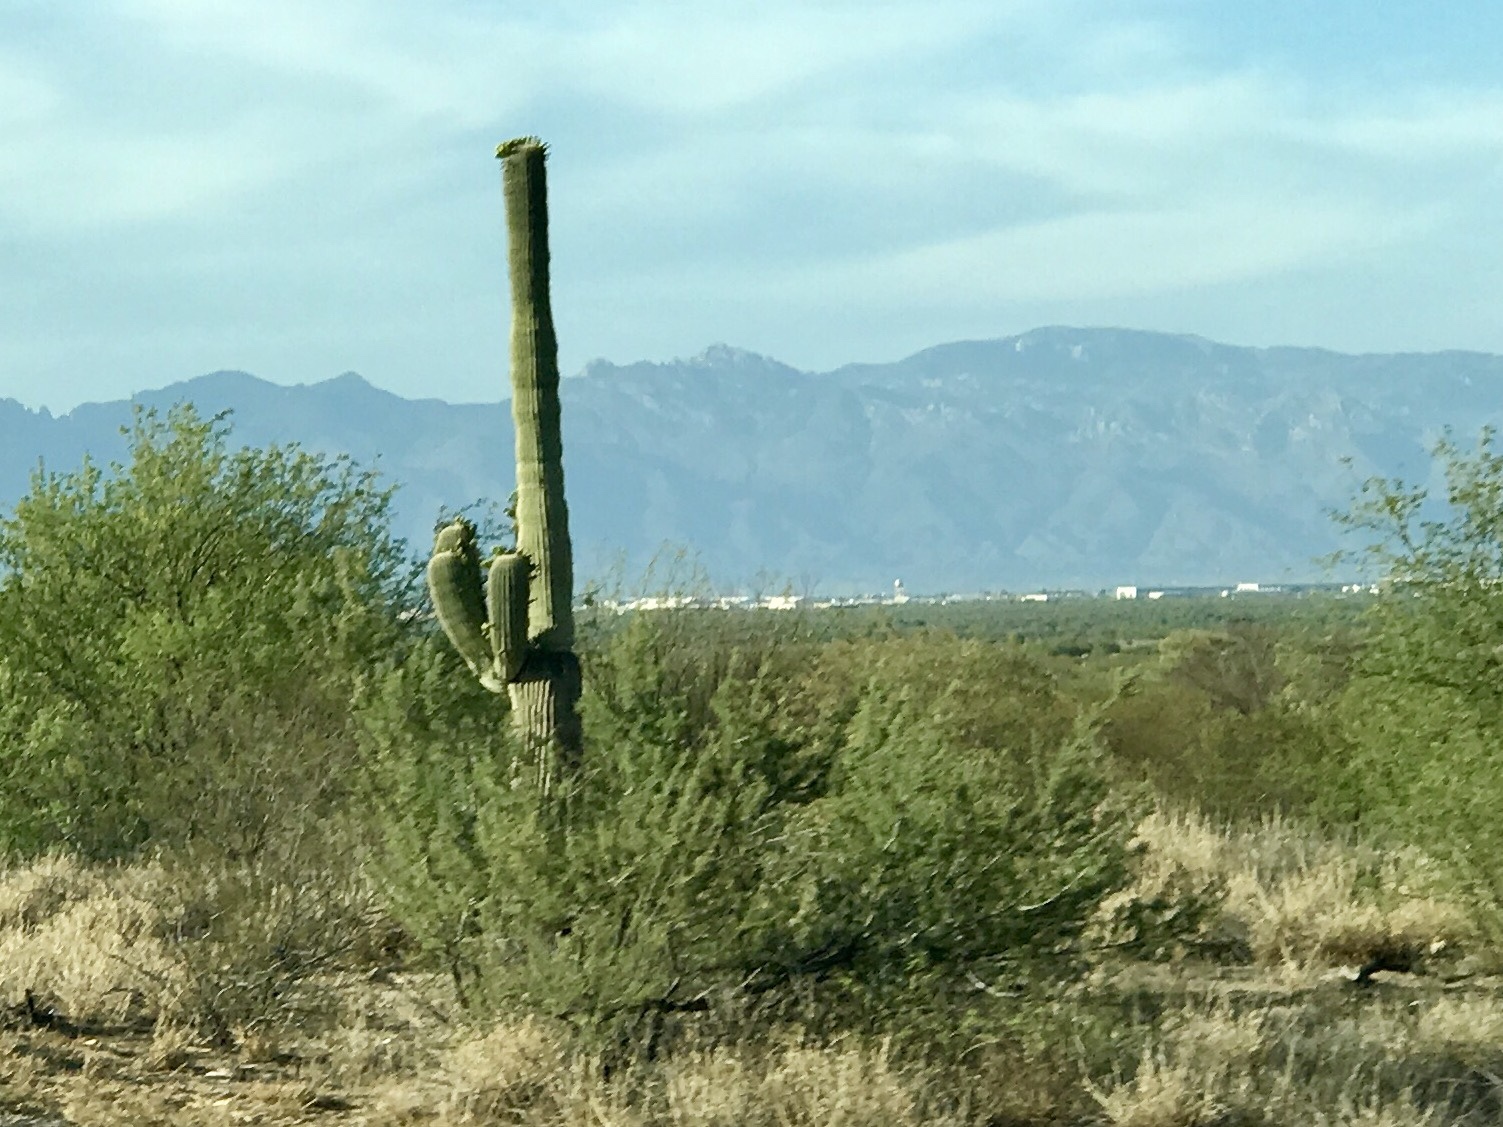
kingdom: Plantae
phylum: Tracheophyta
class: Magnoliopsida
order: Caryophyllales
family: Cactaceae
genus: Carnegiea
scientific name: Carnegiea gigantea
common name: Saguaro
